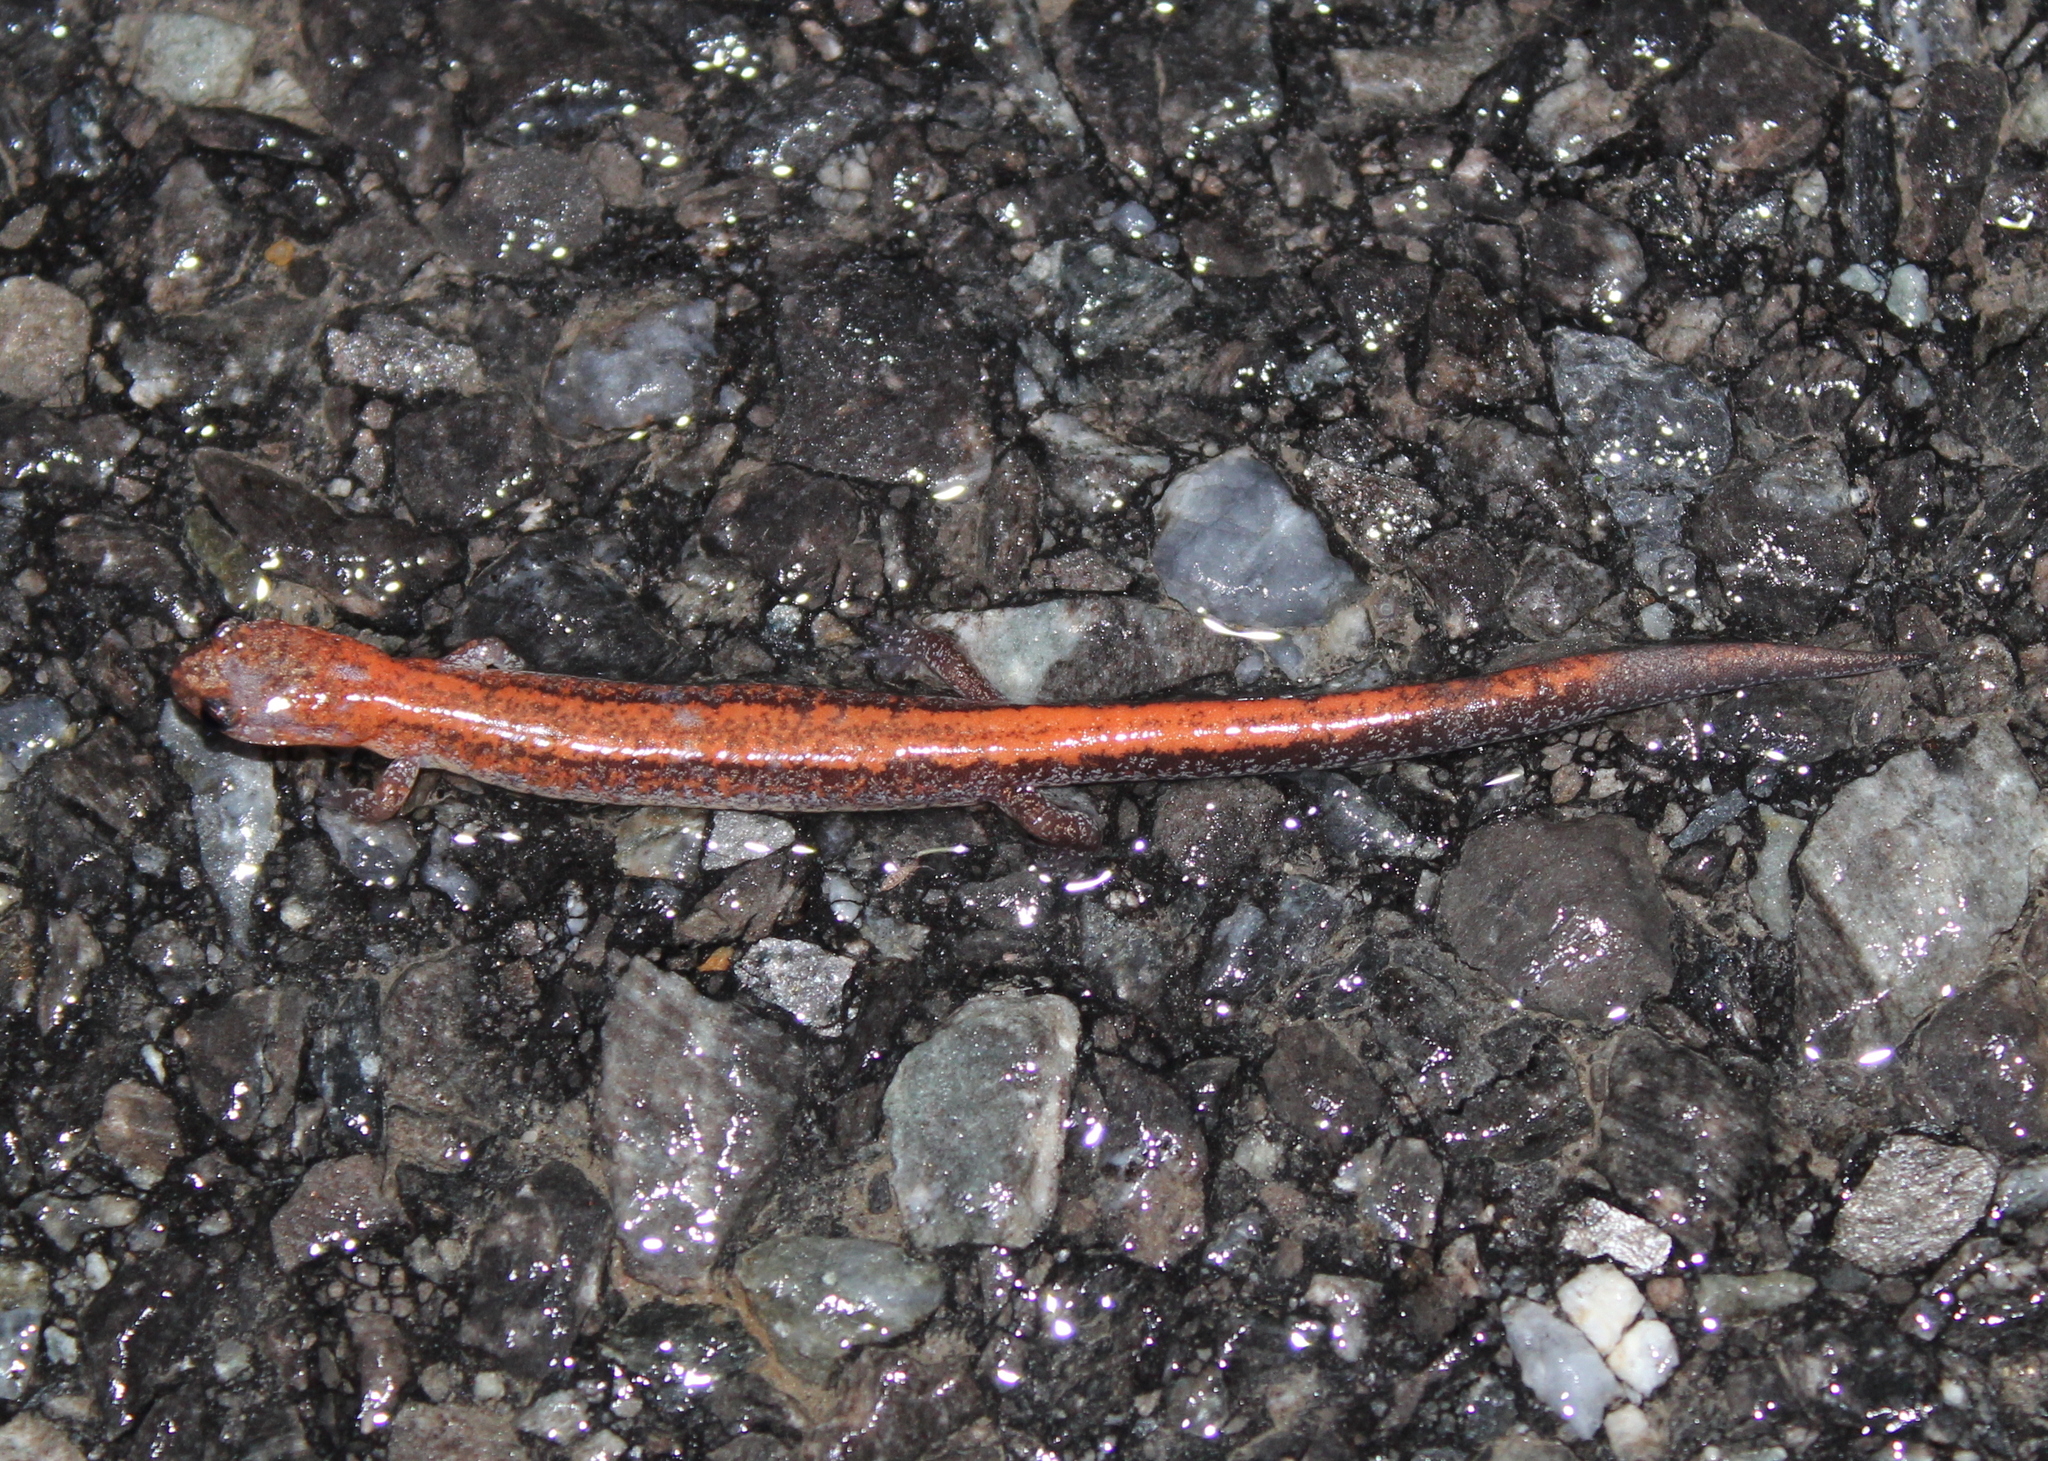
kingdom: Animalia
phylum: Chordata
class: Amphibia
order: Caudata
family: Plethodontidae
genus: Plethodon
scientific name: Plethodon cinereus
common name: Redback salamander
